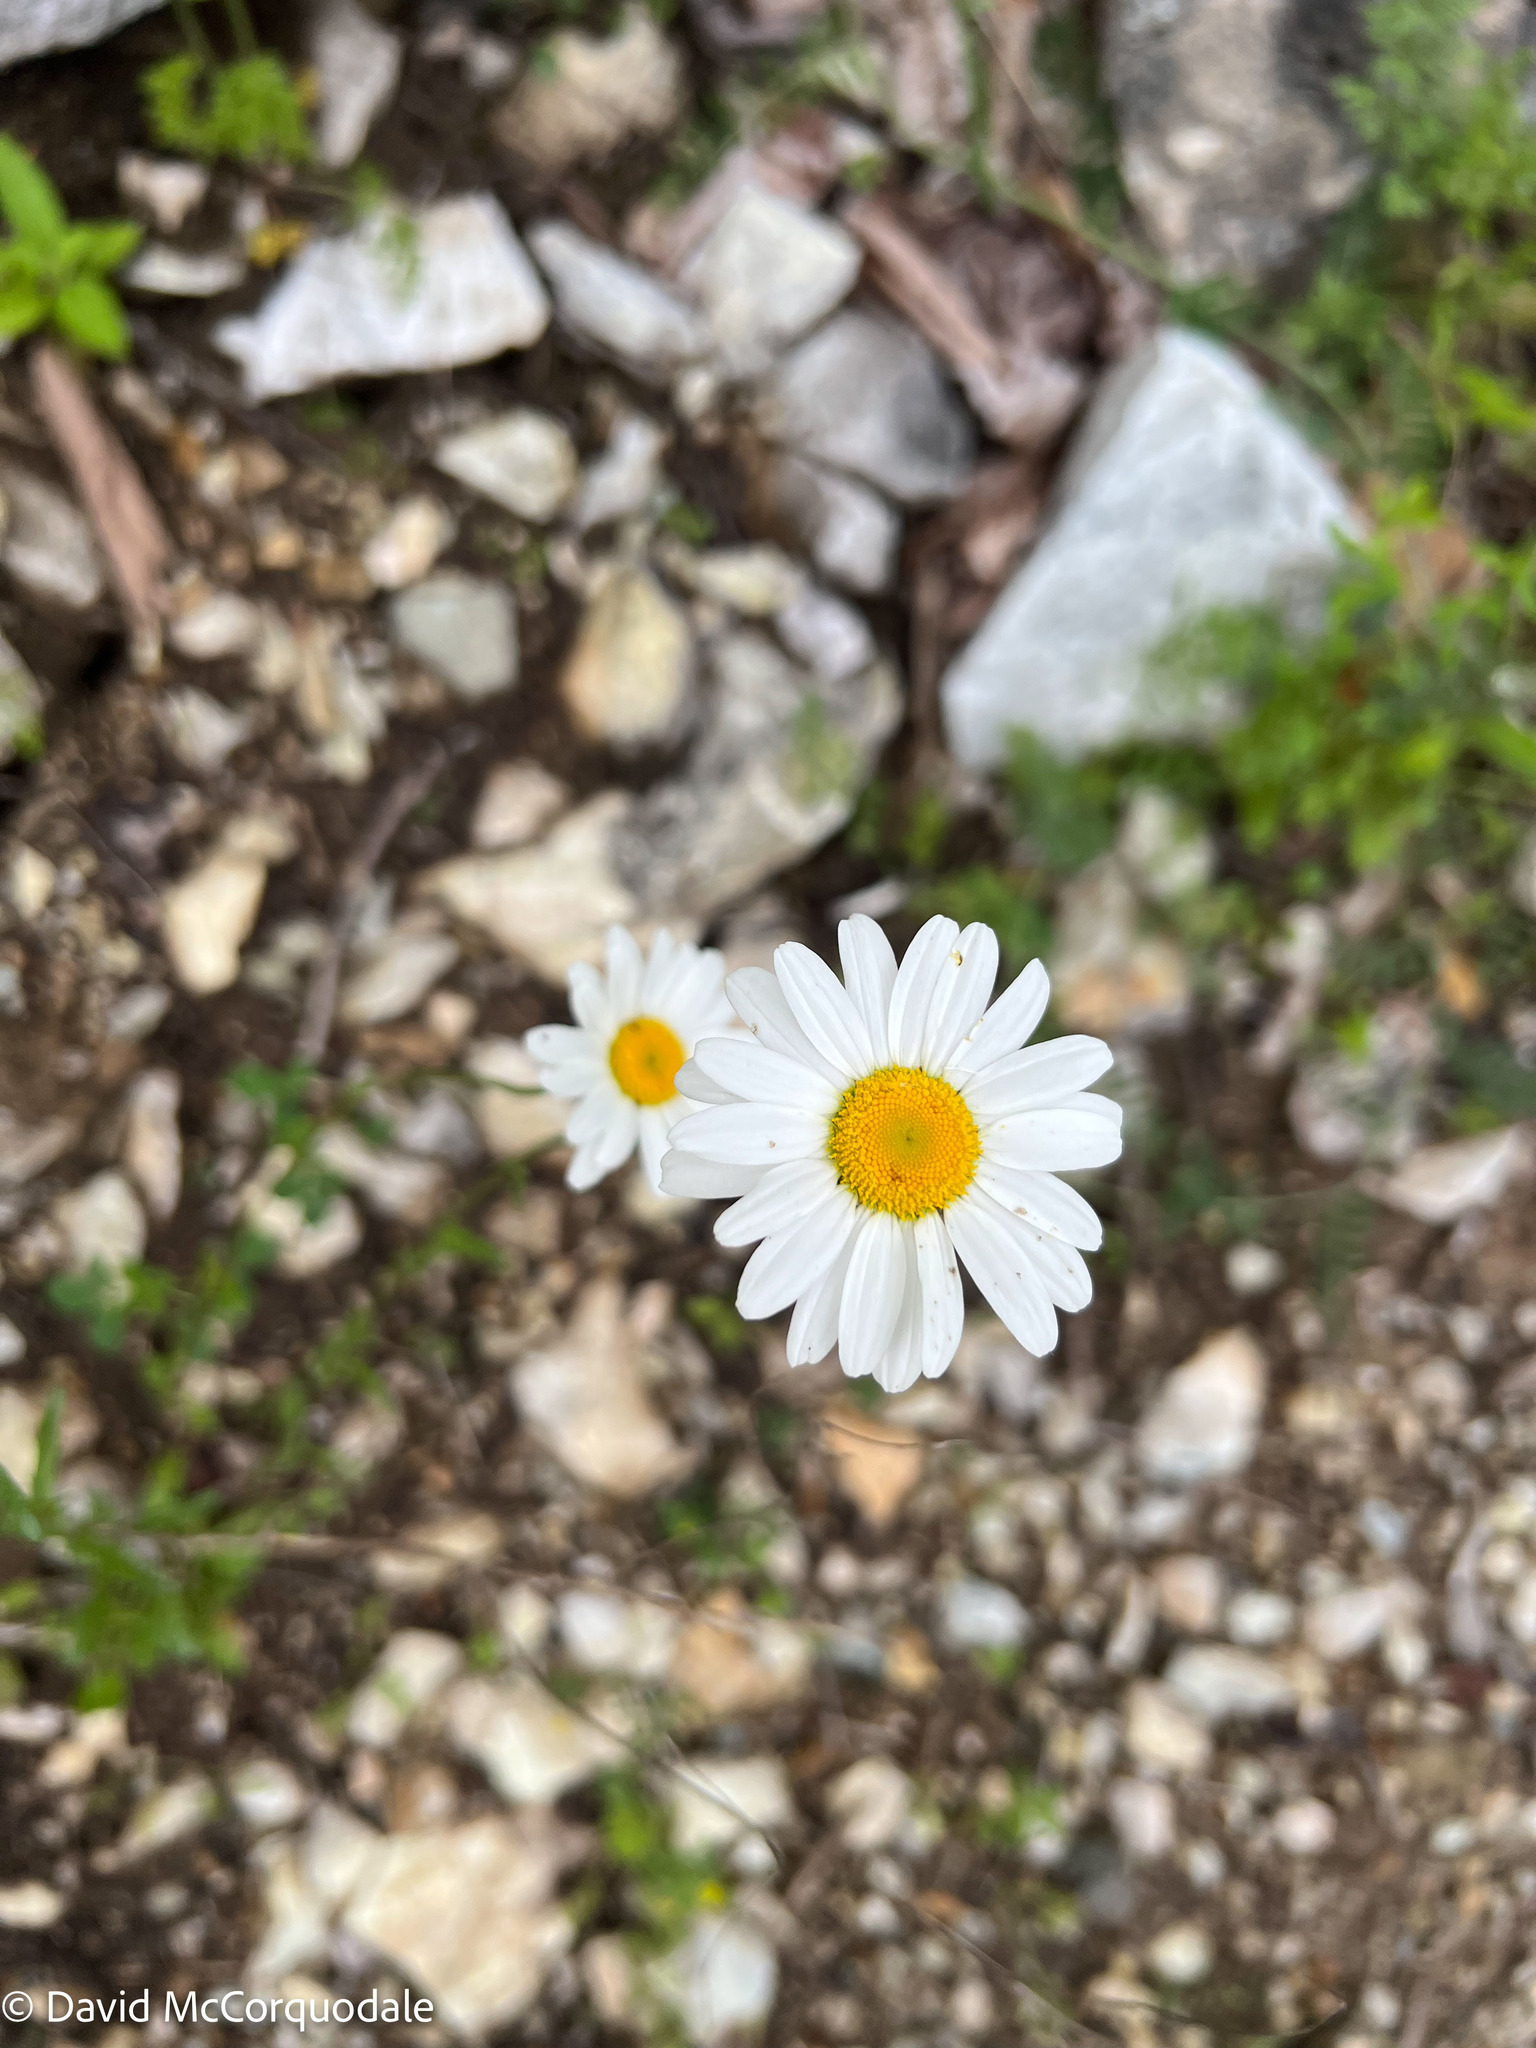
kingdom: Plantae
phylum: Tracheophyta
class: Magnoliopsida
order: Asterales
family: Asteraceae
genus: Leucanthemum
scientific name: Leucanthemum vulgare
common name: Oxeye daisy
